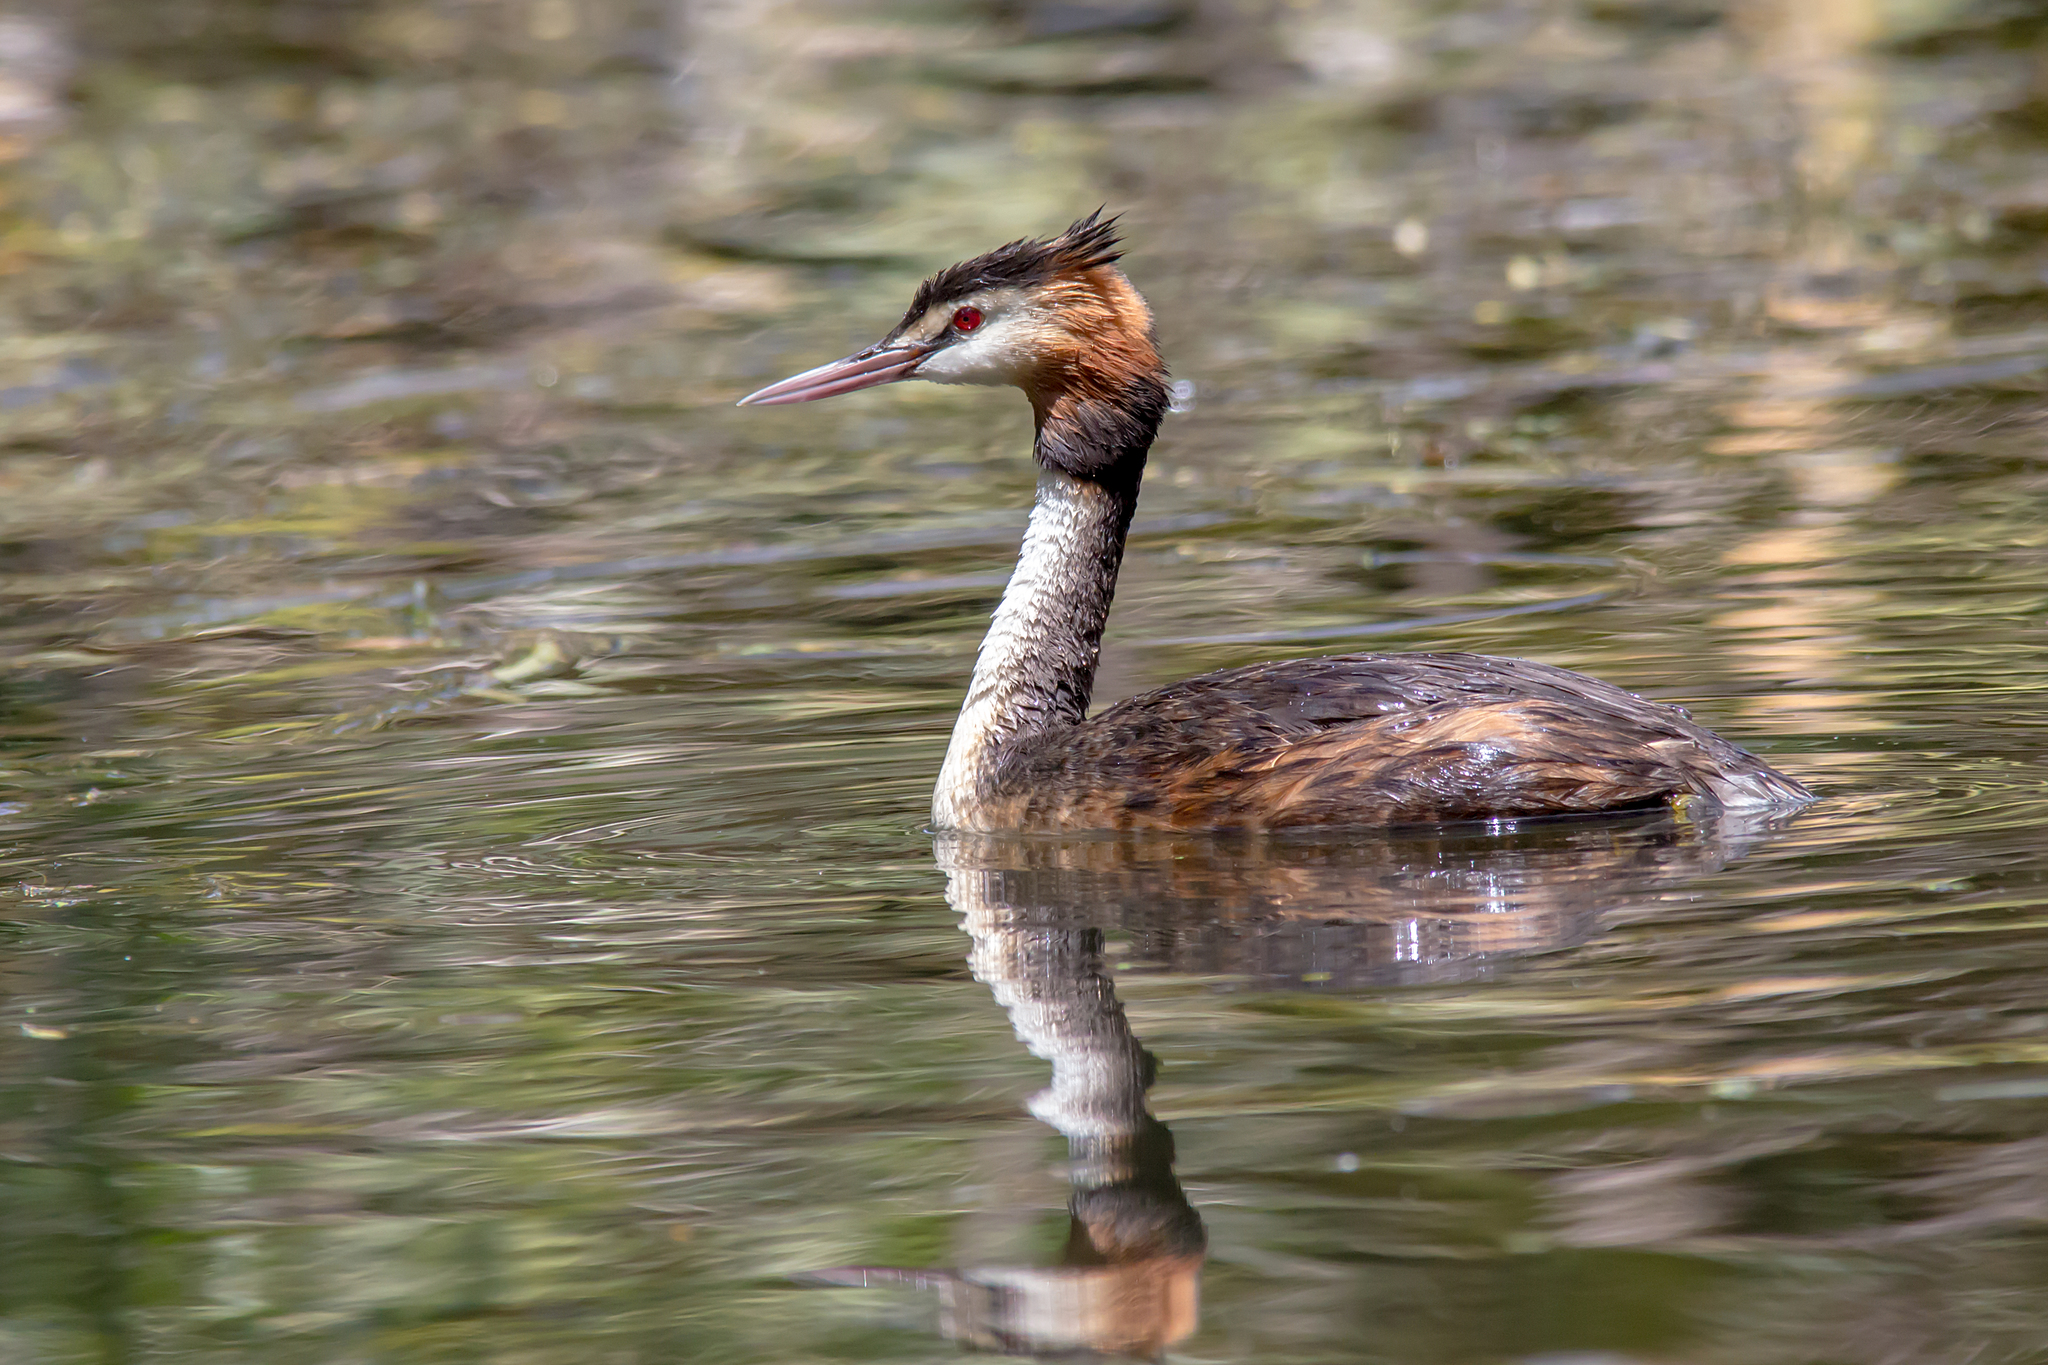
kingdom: Animalia
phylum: Chordata
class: Aves
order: Podicipediformes
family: Podicipedidae
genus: Podiceps
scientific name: Podiceps cristatus
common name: Great crested grebe
